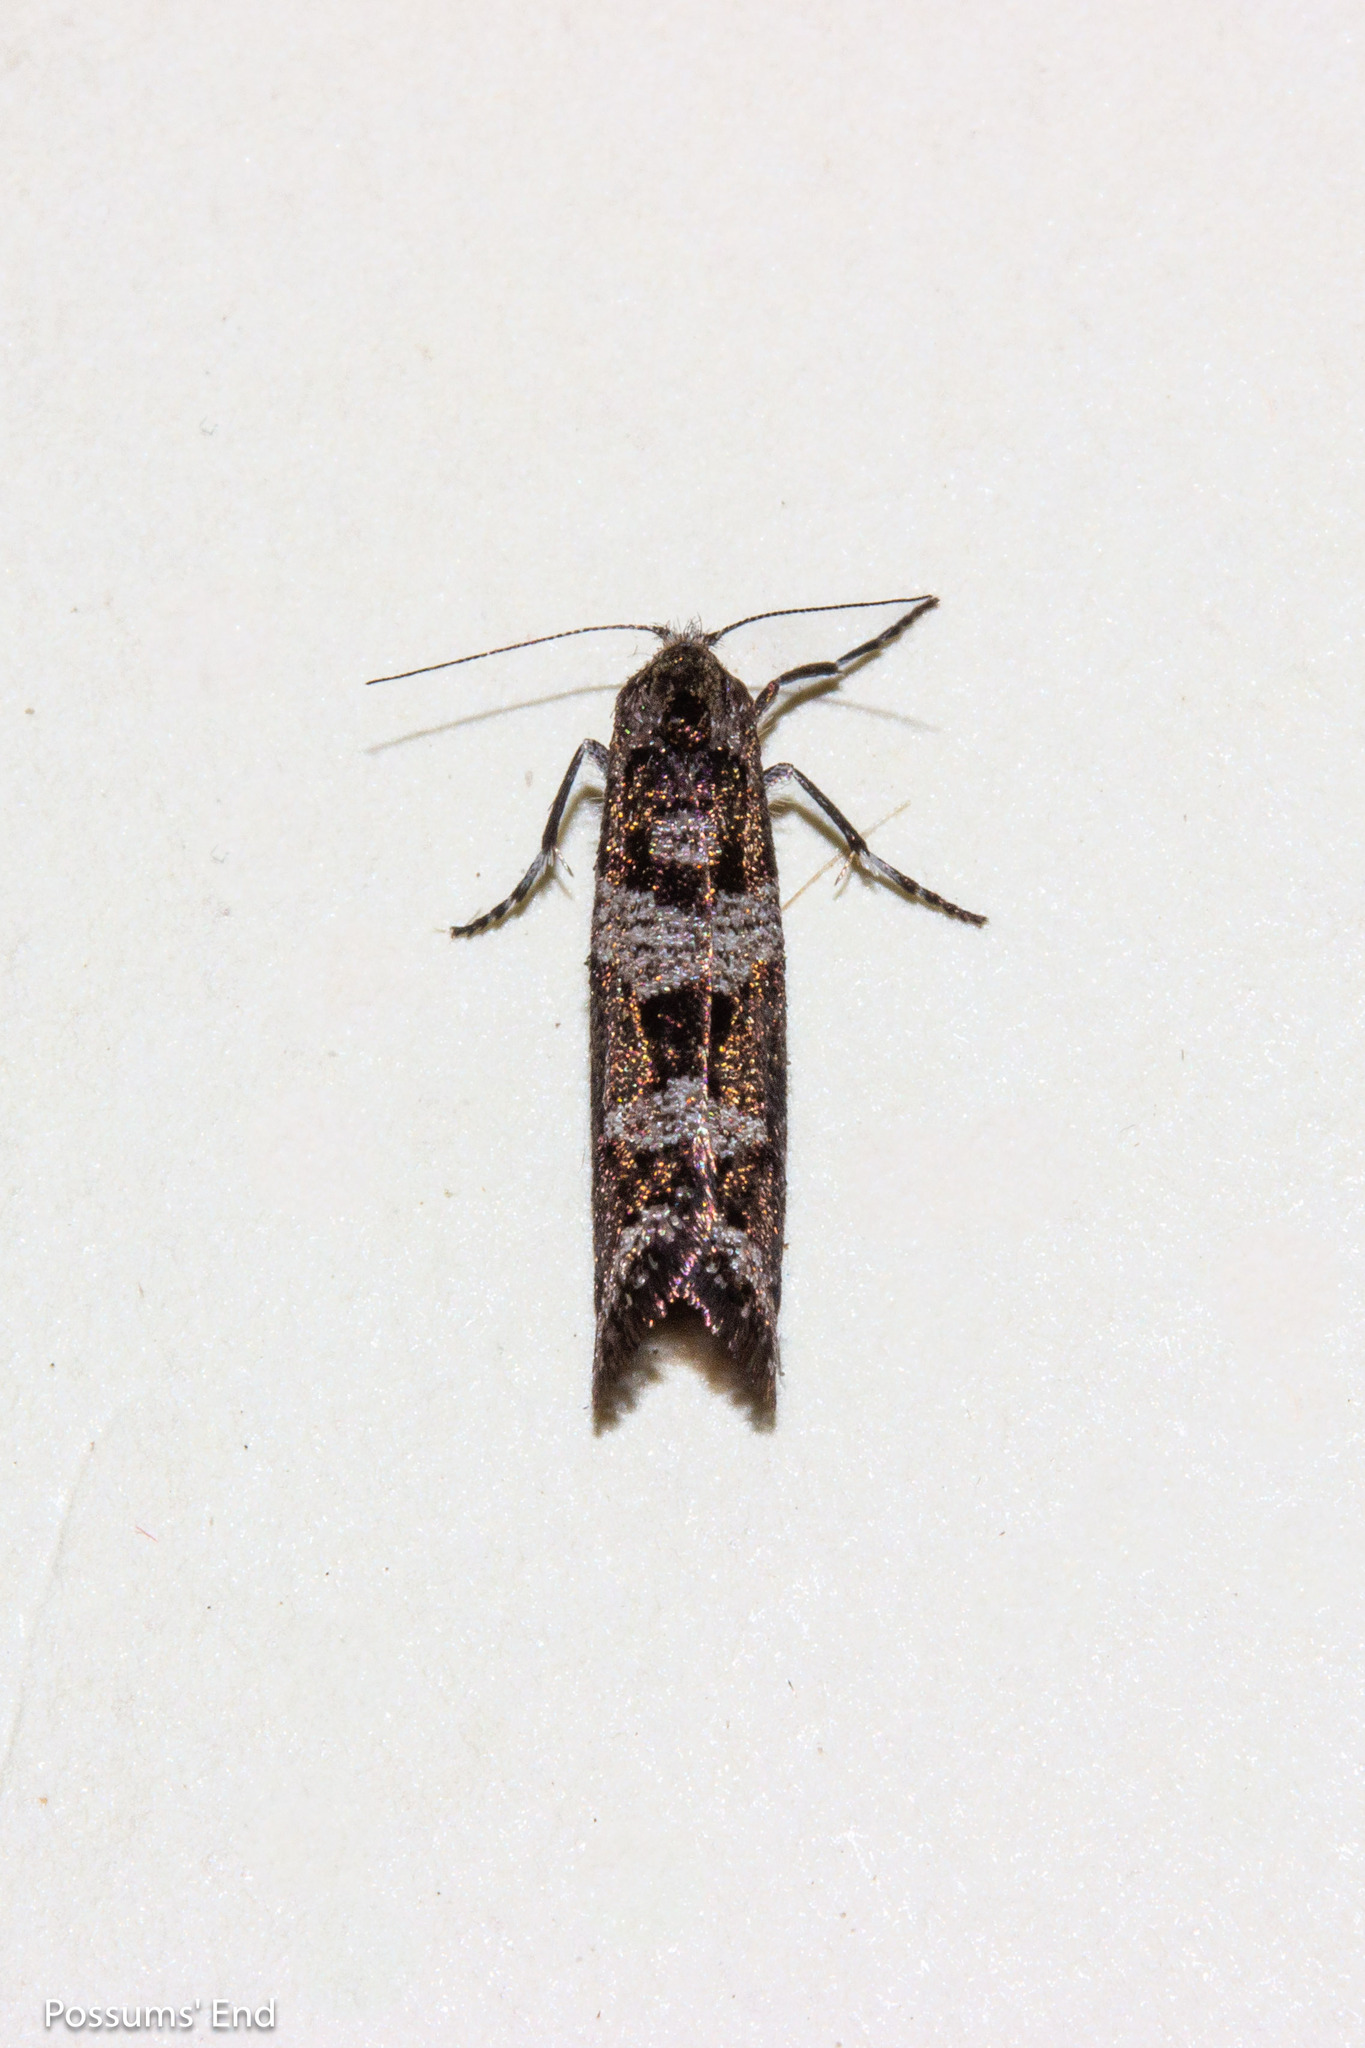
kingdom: Animalia
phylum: Arthropoda
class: Insecta
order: Lepidoptera
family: Psychidae
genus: Lepidoscia
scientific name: Lepidoscia heliochares
